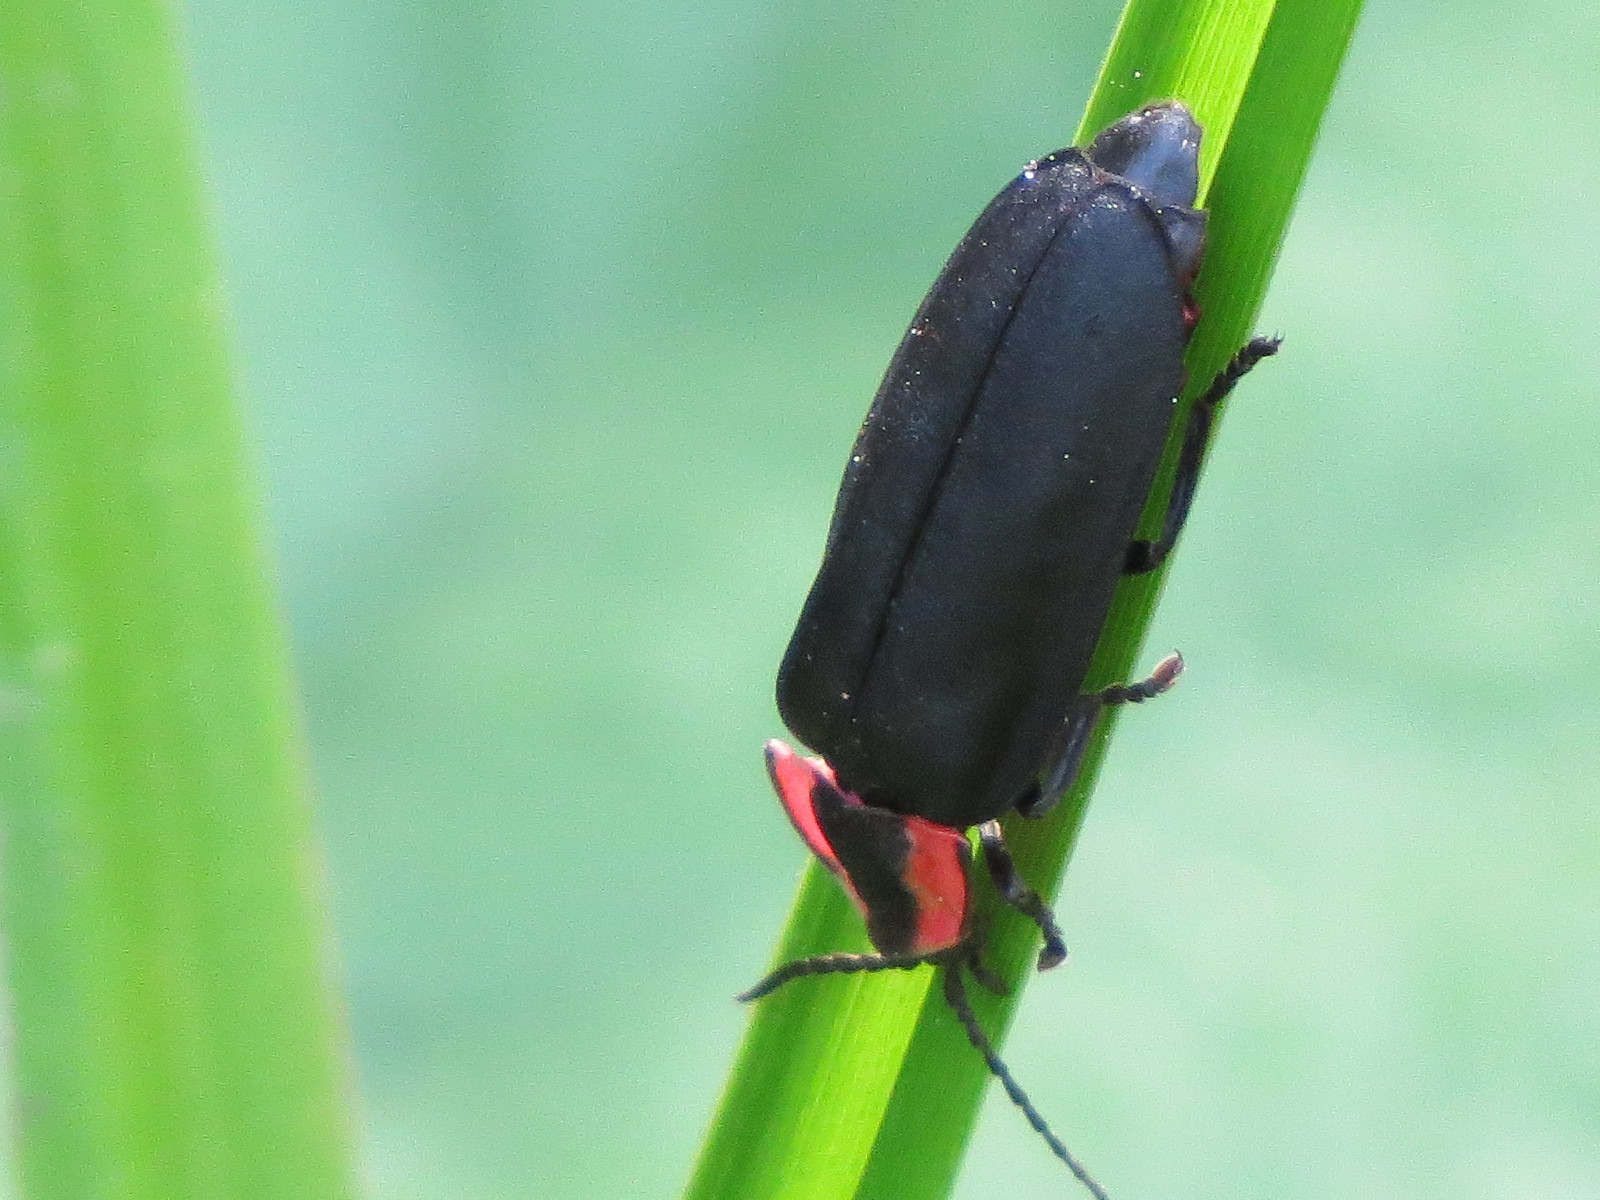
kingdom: Animalia
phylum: Arthropoda
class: Insecta
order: Coleoptera
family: Lampyridae
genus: Photinus
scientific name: Photinus californica
